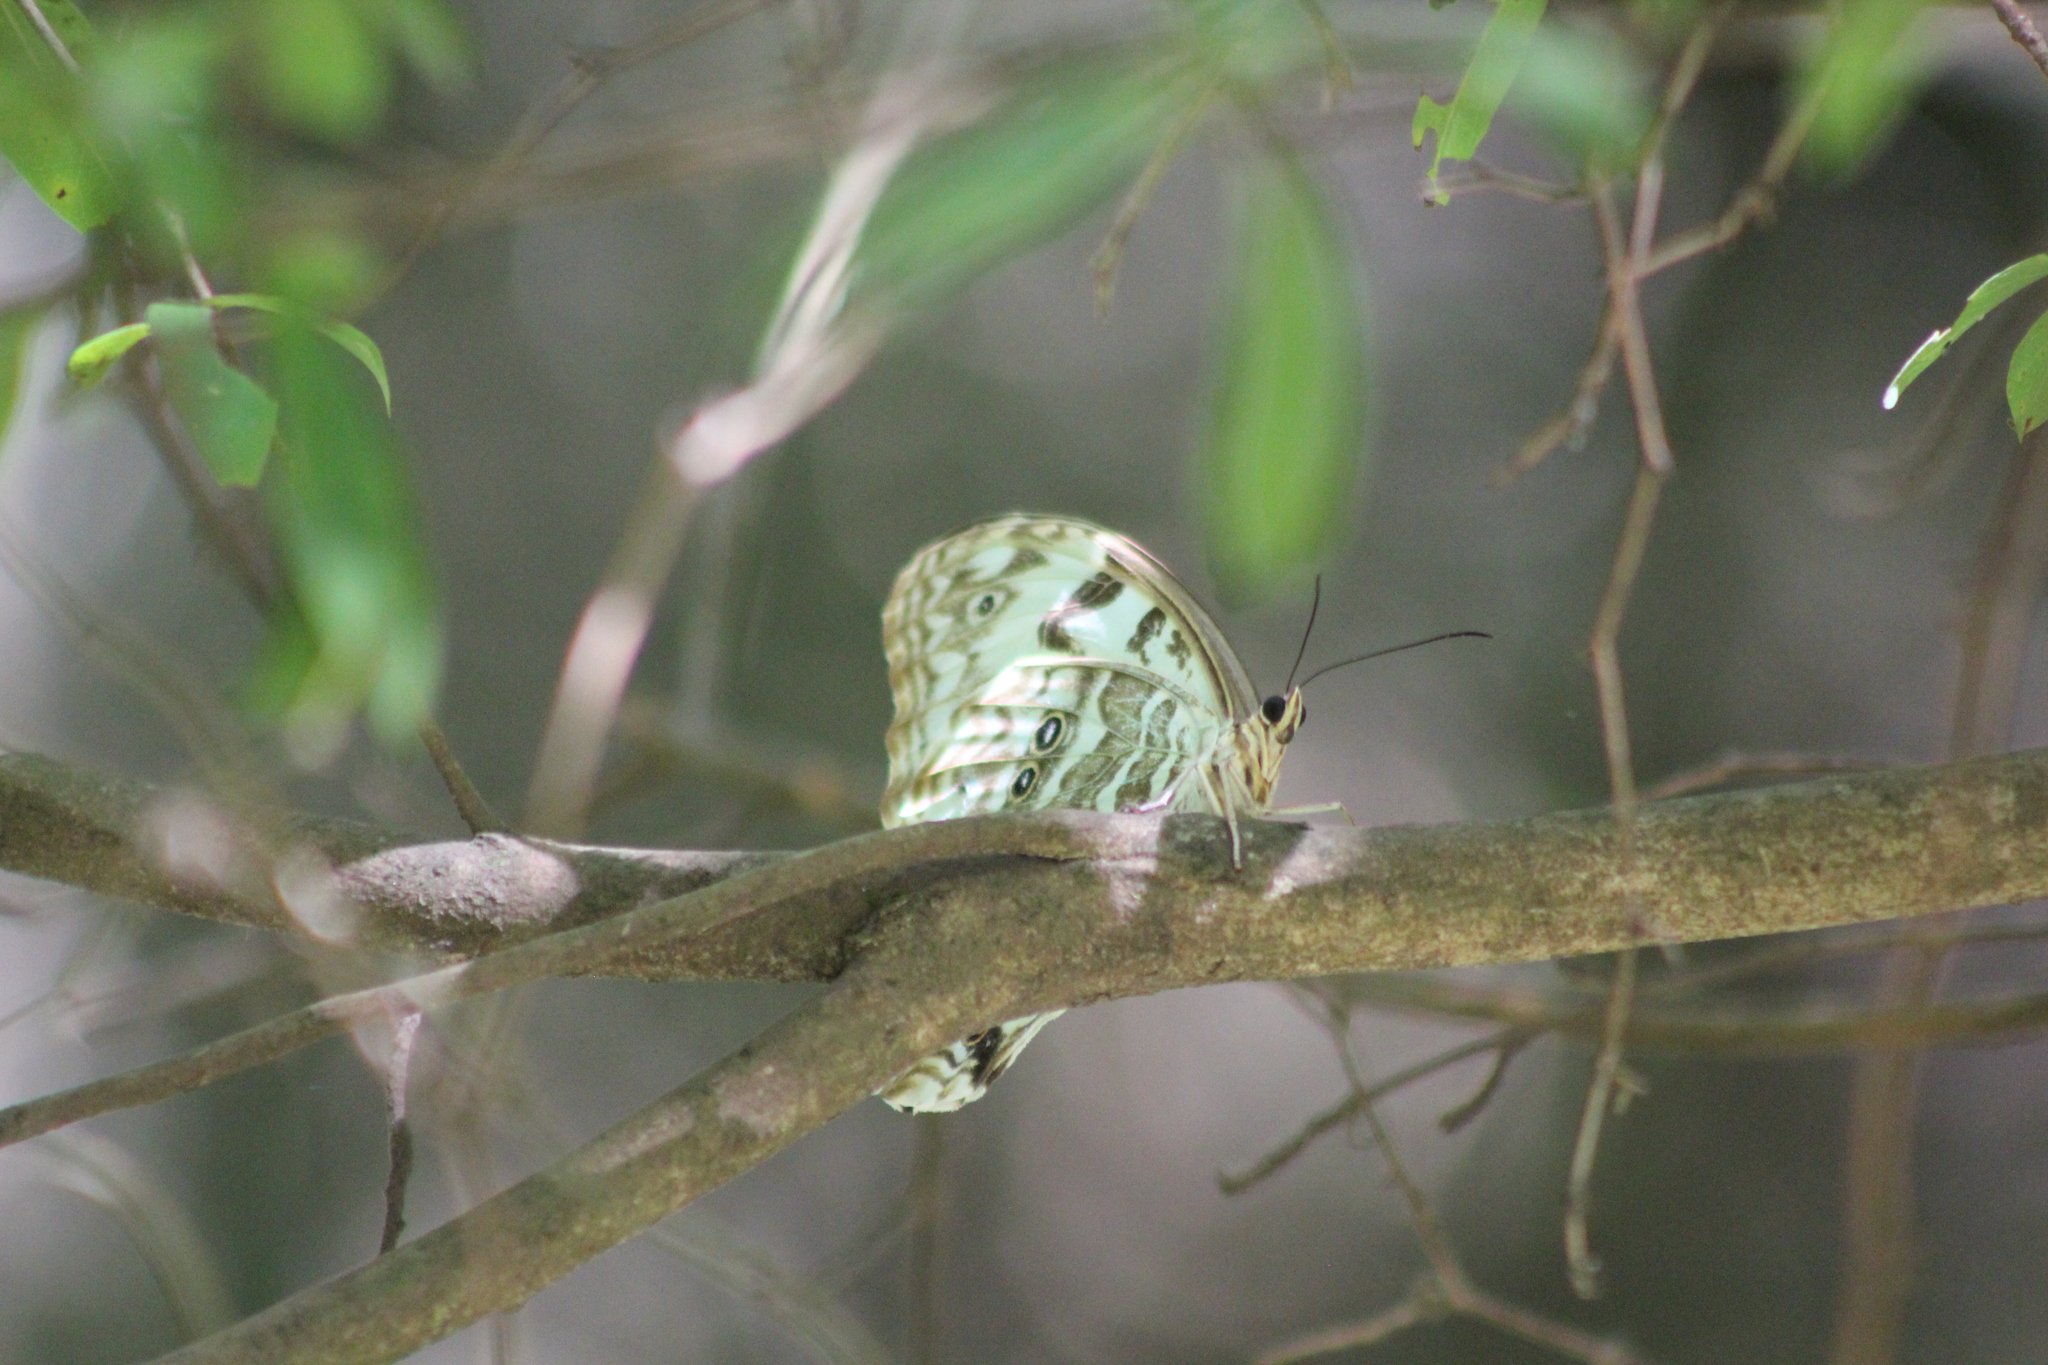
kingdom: Animalia
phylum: Arthropoda
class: Insecta
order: Lepidoptera
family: Nymphalidae
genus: Morpho
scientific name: Morpho epistrophus
